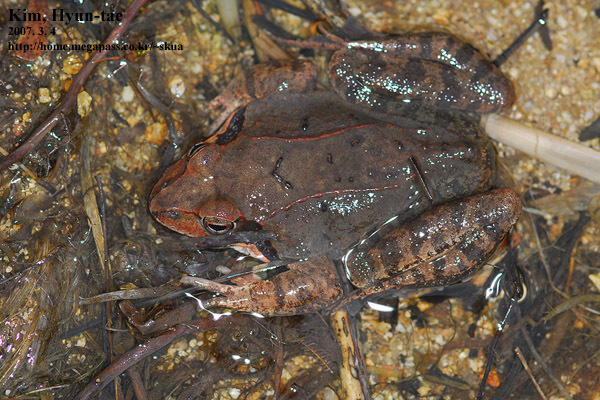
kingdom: Animalia
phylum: Chordata
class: Amphibia
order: Anura
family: Ranidae
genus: Rana
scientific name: Rana uenoi
